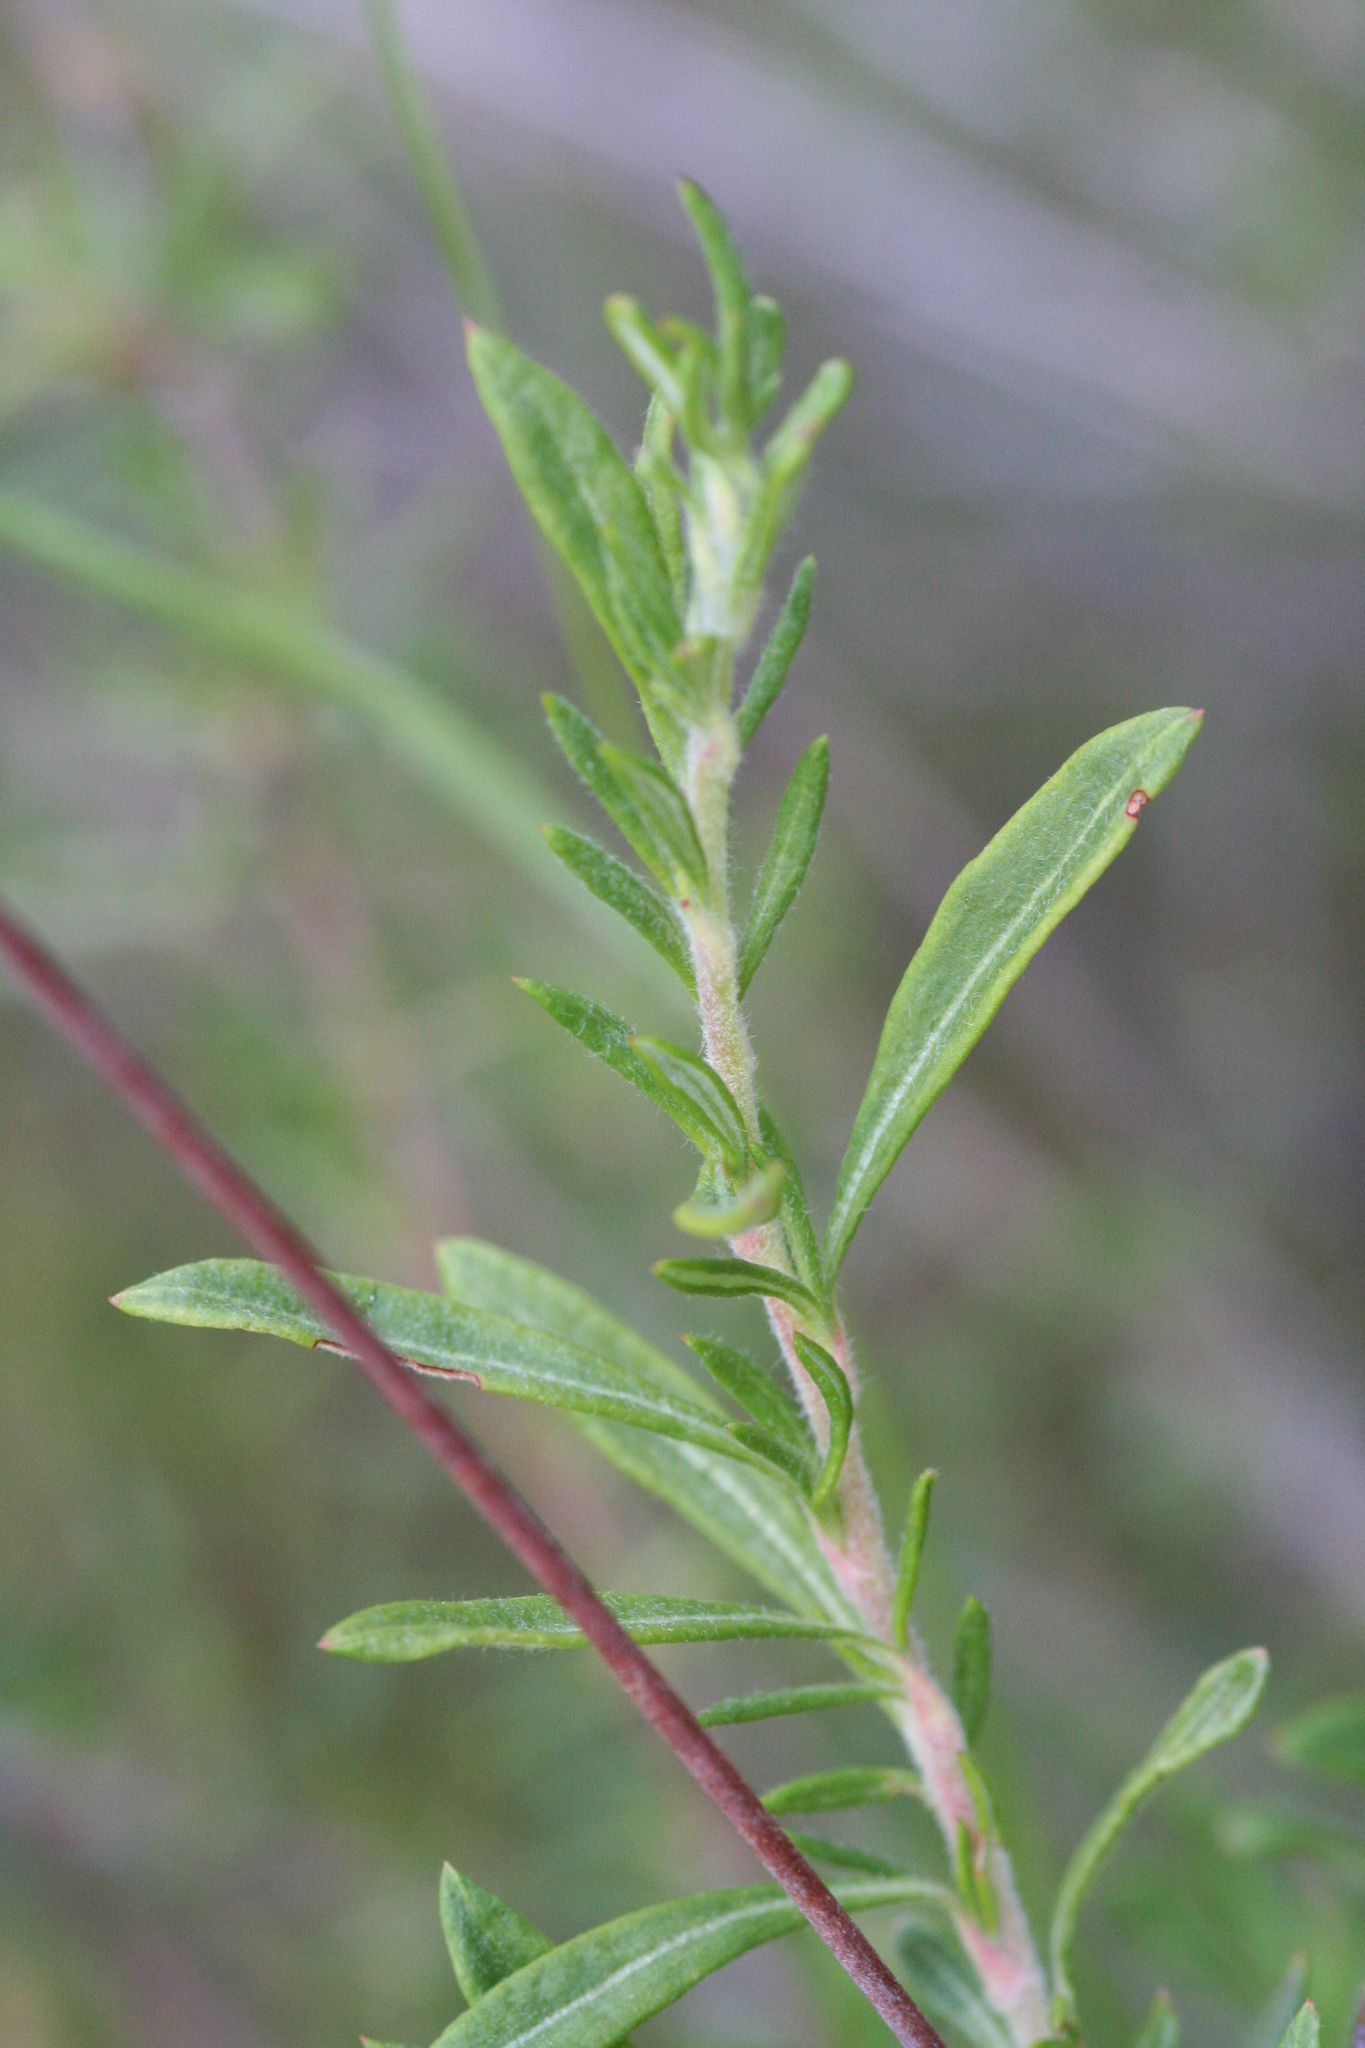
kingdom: Plantae
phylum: Tracheophyta
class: Magnoliopsida
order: Caryophyllales
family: Polygonaceae
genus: Eriogonum
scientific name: Eriogonum fasciculatum
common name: California wild buckwheat
